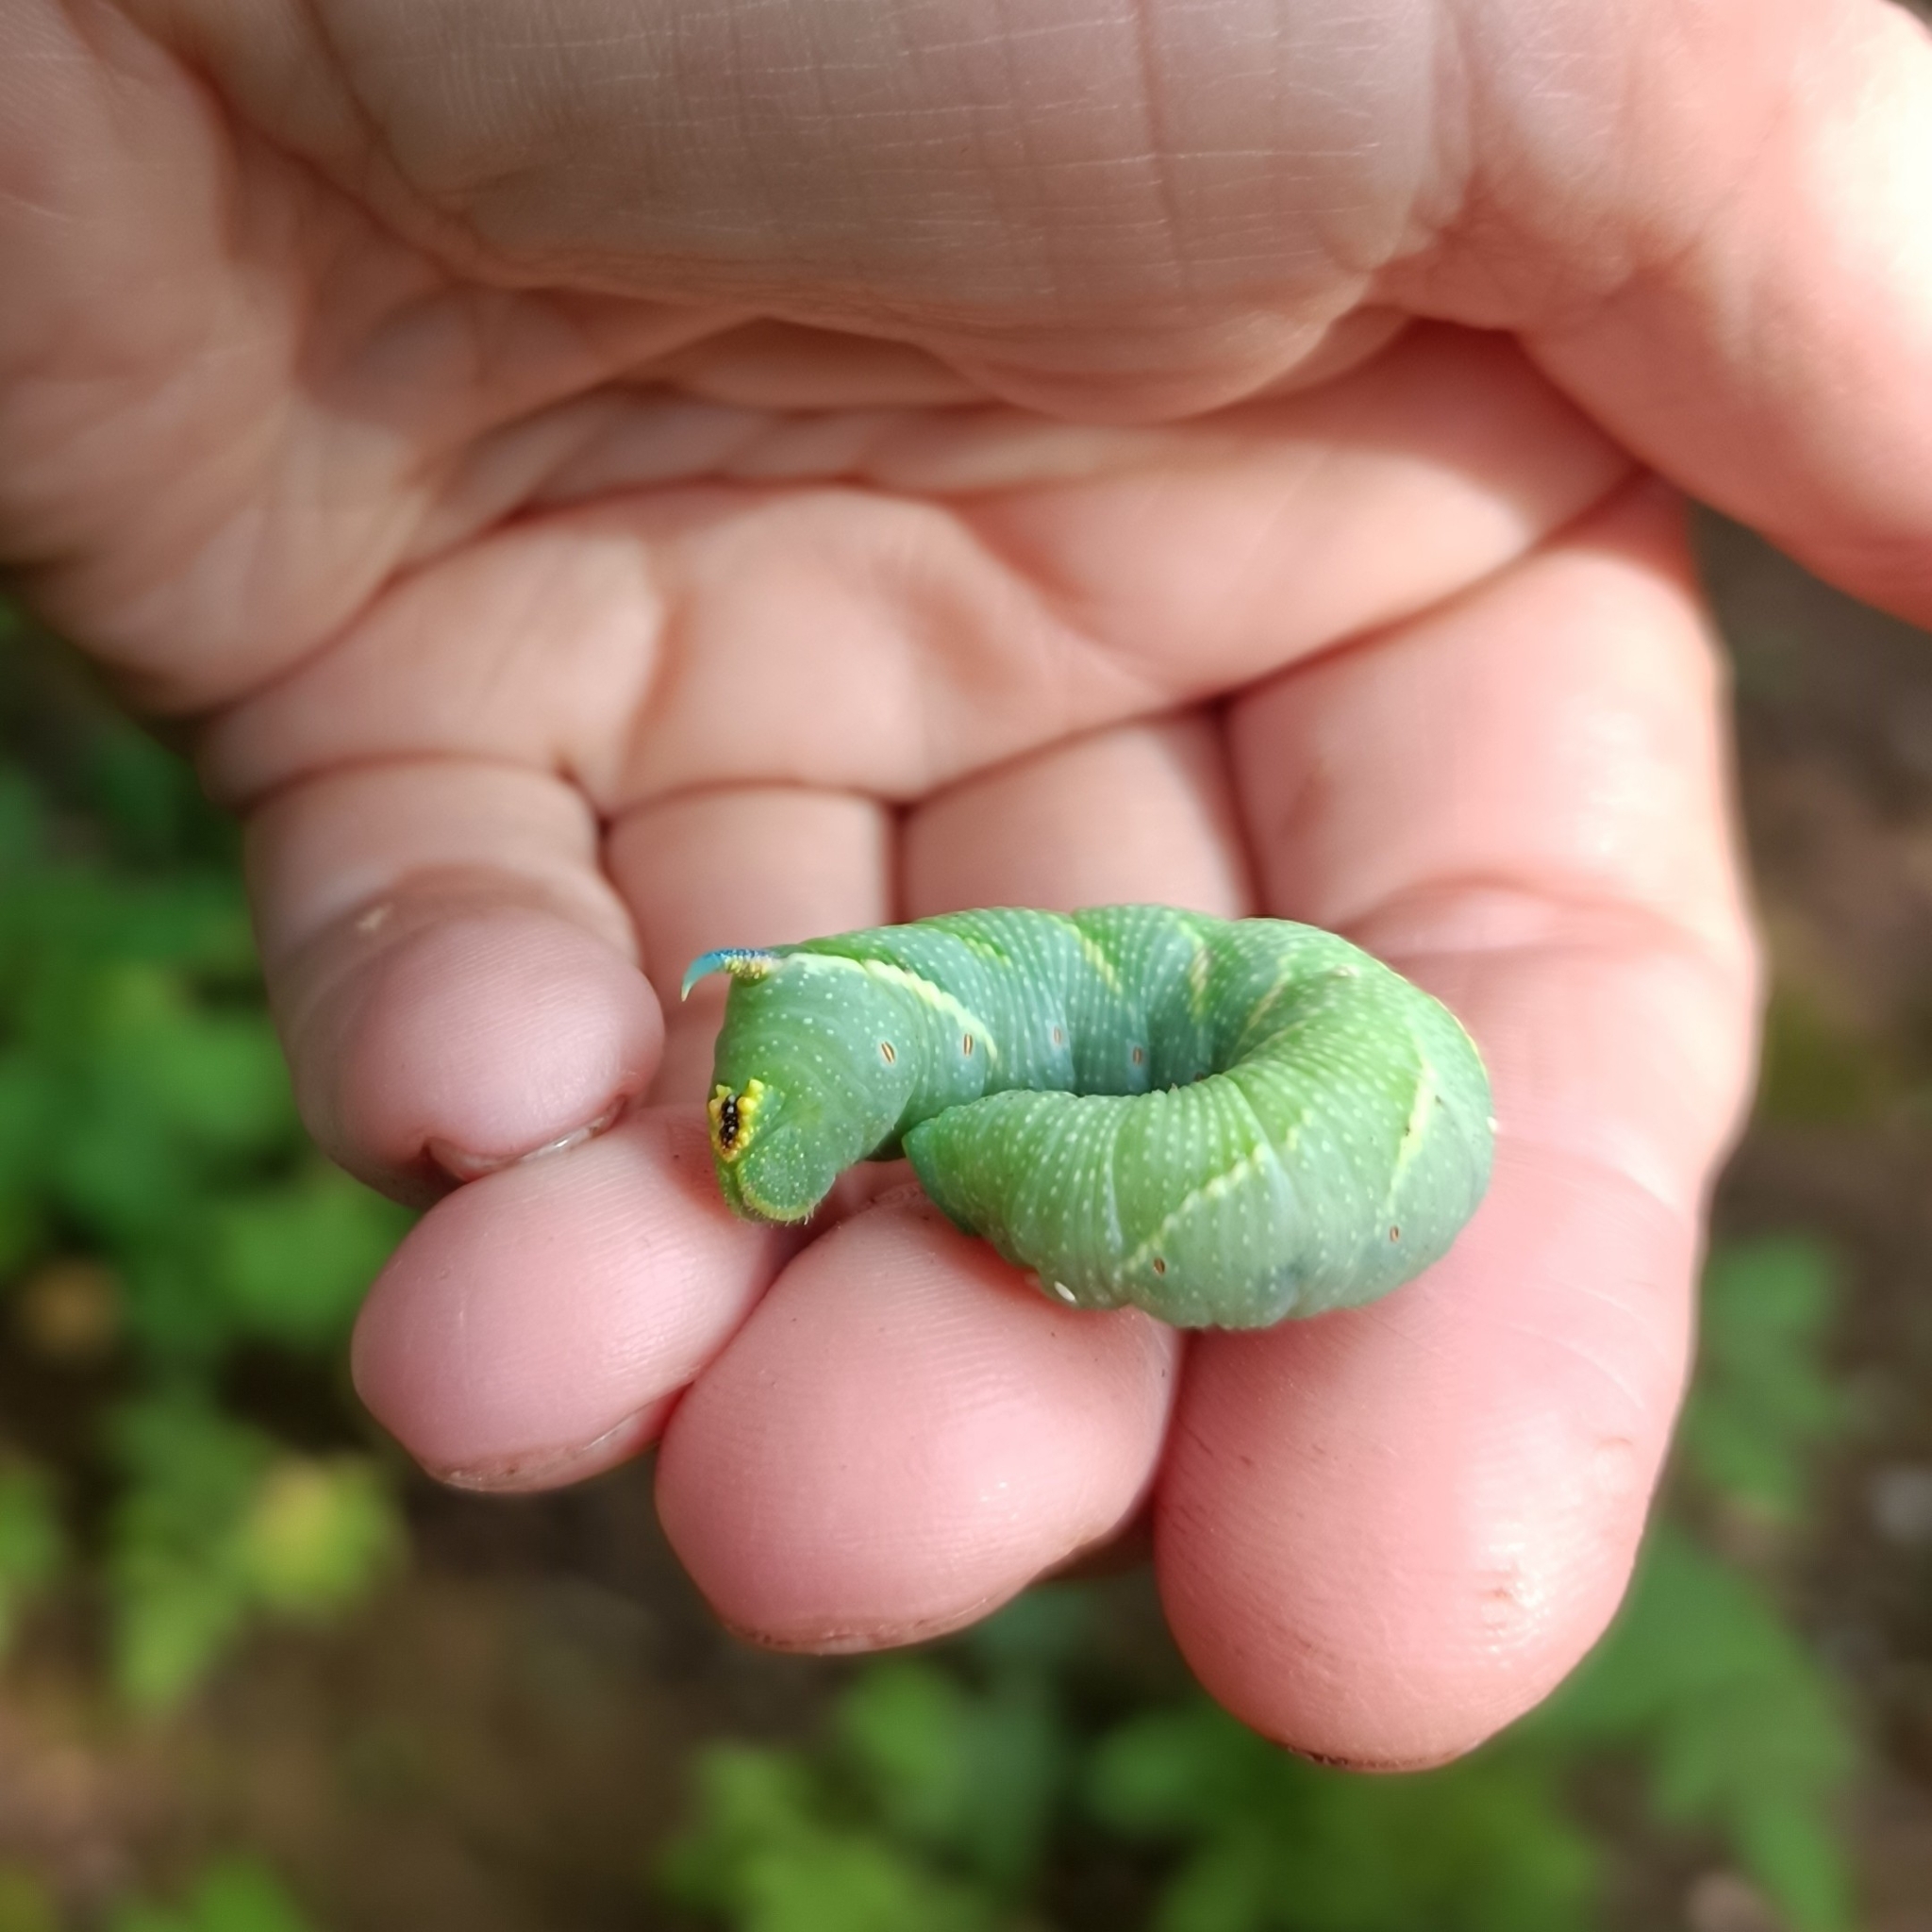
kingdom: Animalia
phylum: Arthropoda
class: Insecta
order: Lepidoptera
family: Sphingidae
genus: Mimas
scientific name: Mimas tiliae
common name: Lime hawk-moth
